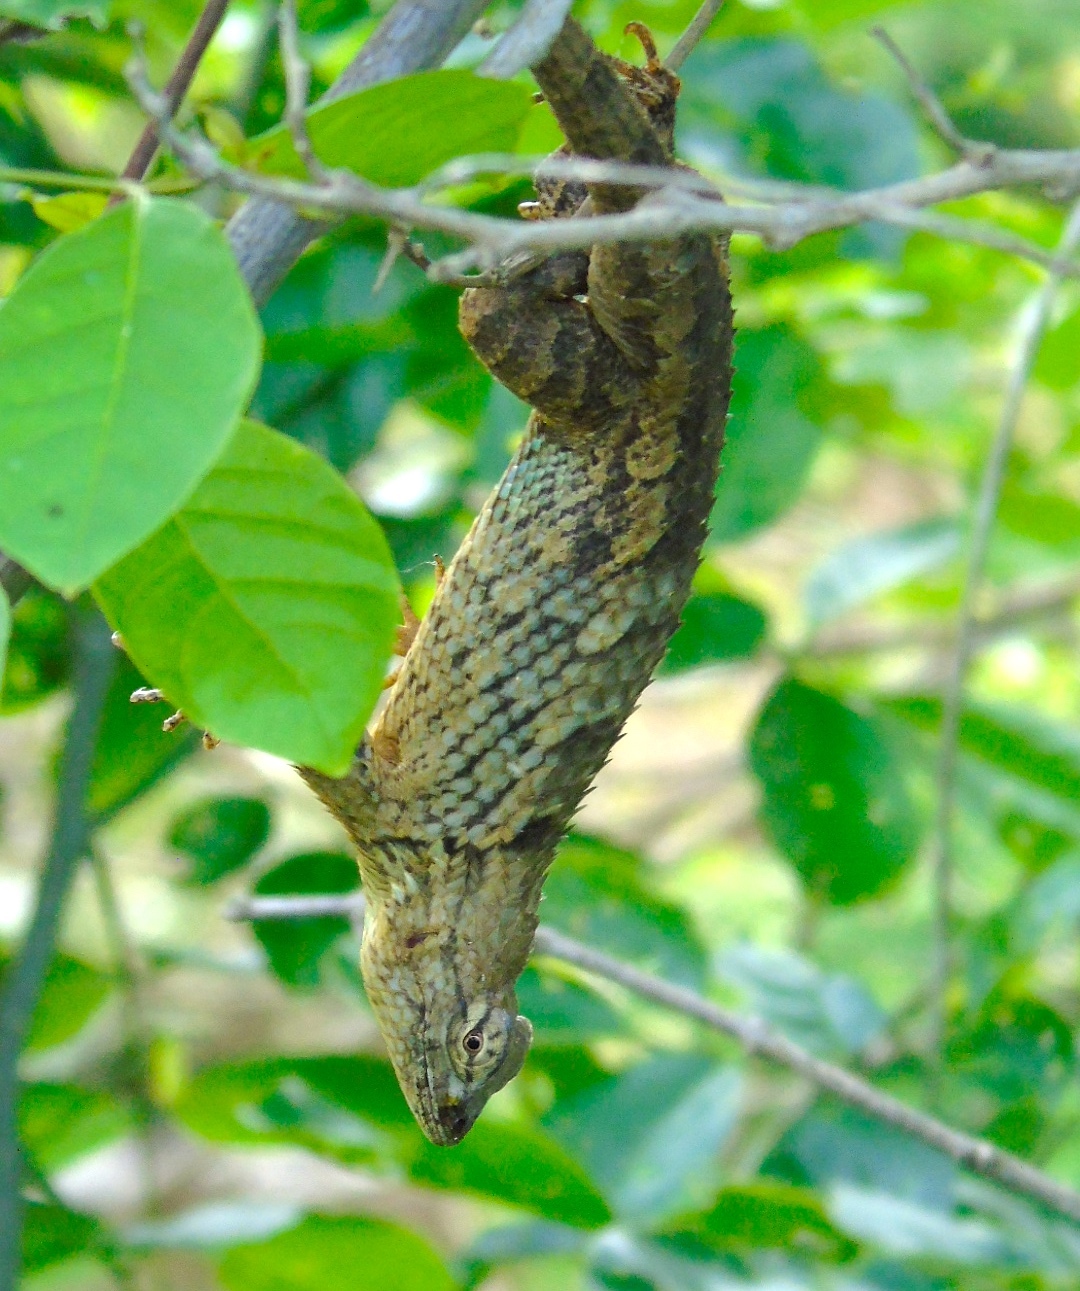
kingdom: Animalia
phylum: Chordata
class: Squamata
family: Phrynosomatidae
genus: Sceloporus
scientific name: Sceloporus clarkii
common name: Clark's spiny lizard
